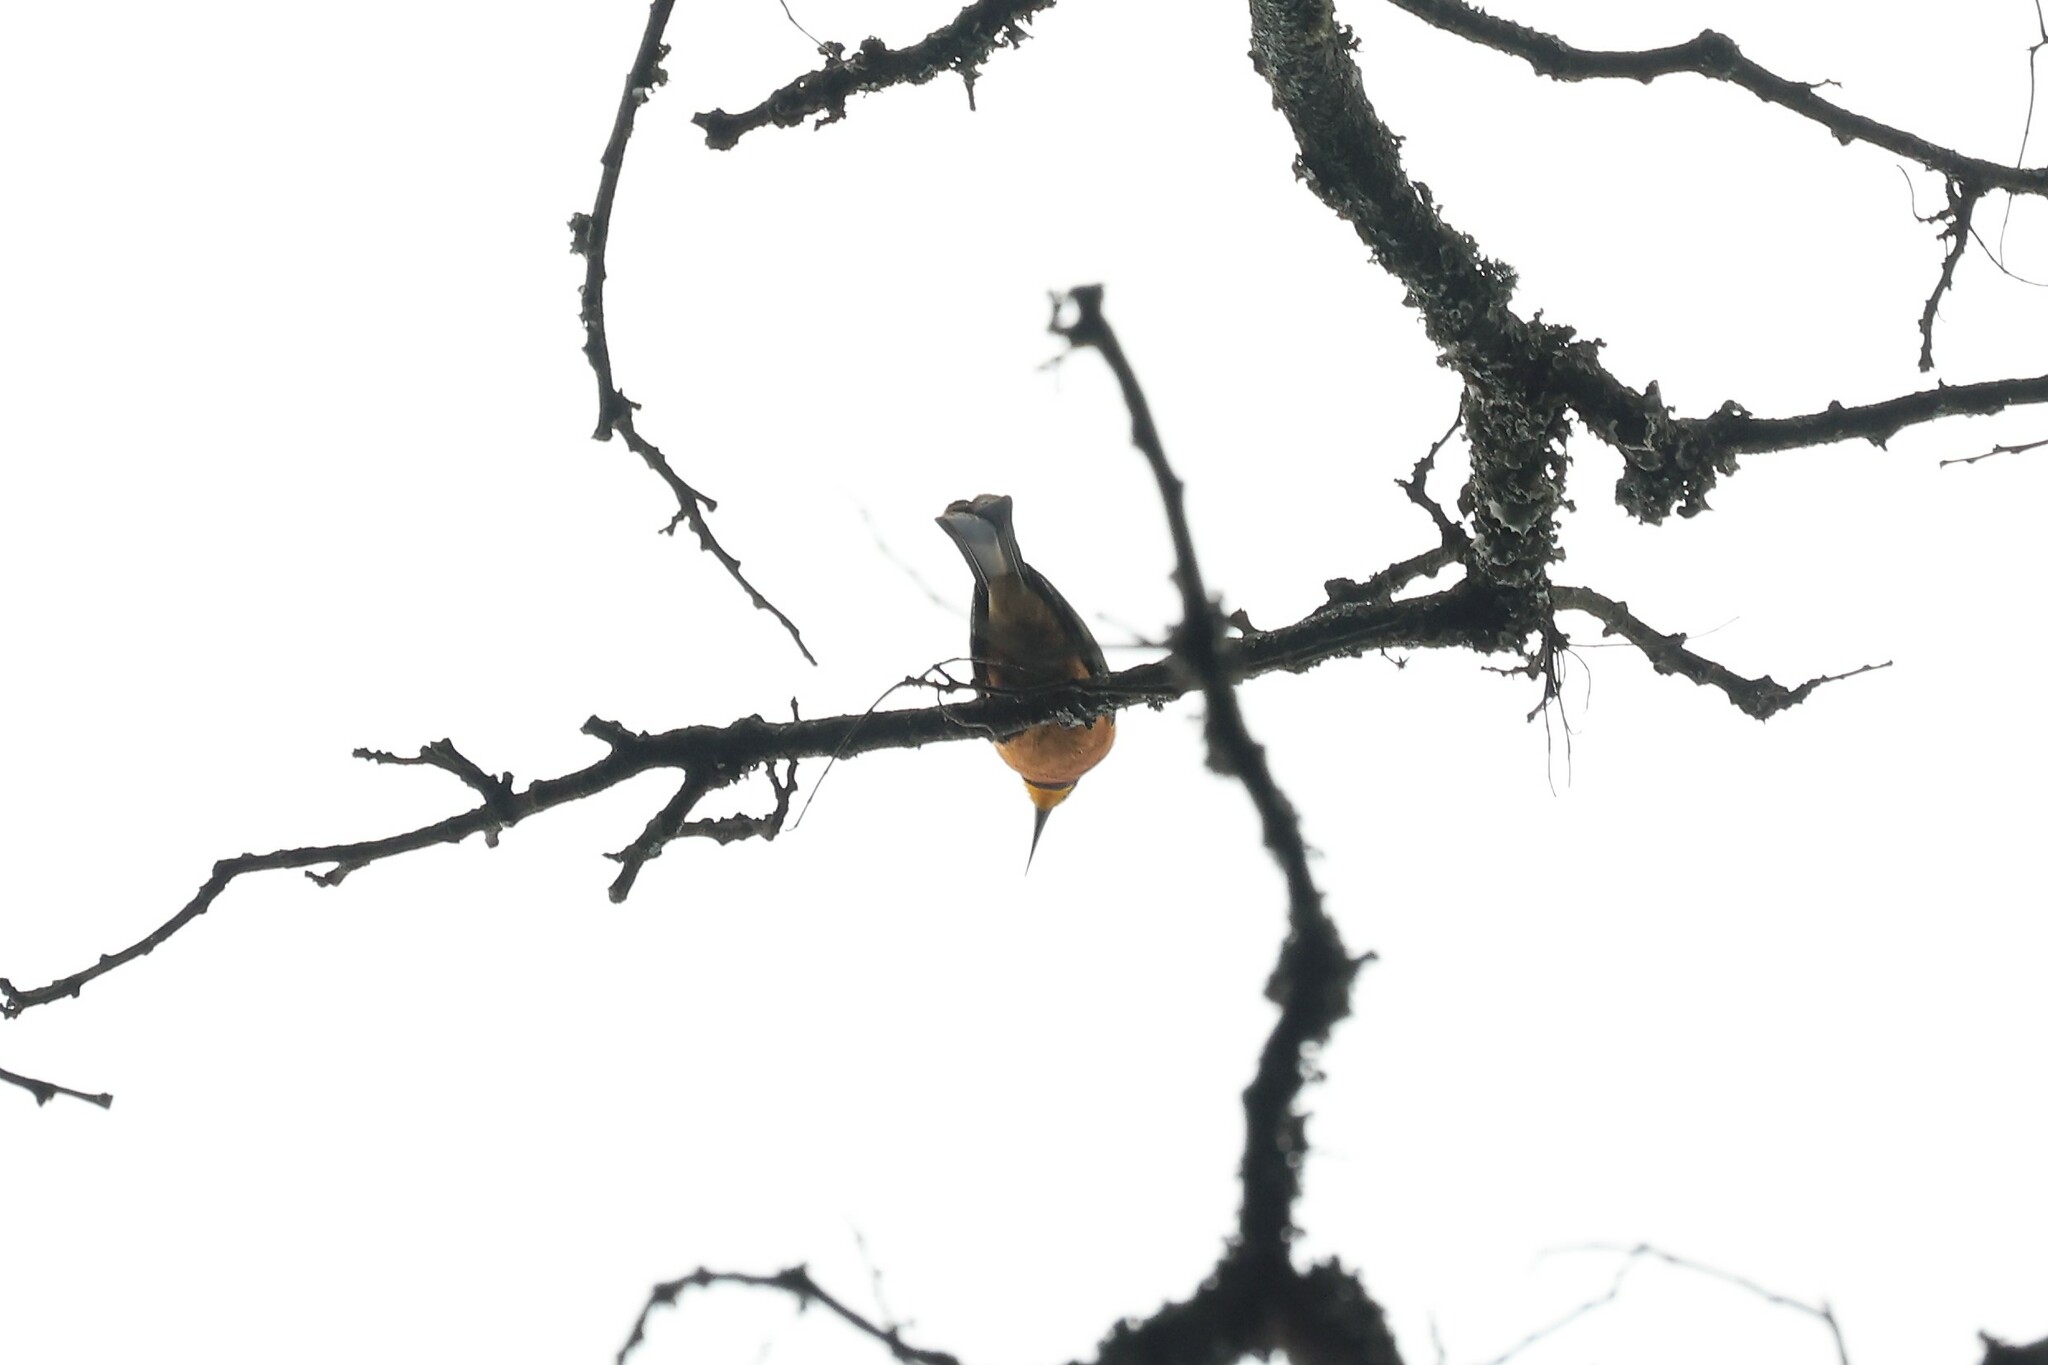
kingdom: Animalia
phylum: Chordata
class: Aves
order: Coraciiformes
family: Meropidae
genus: Merops
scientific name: Merops oreobates
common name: Cinnamon-chested bee-eater
